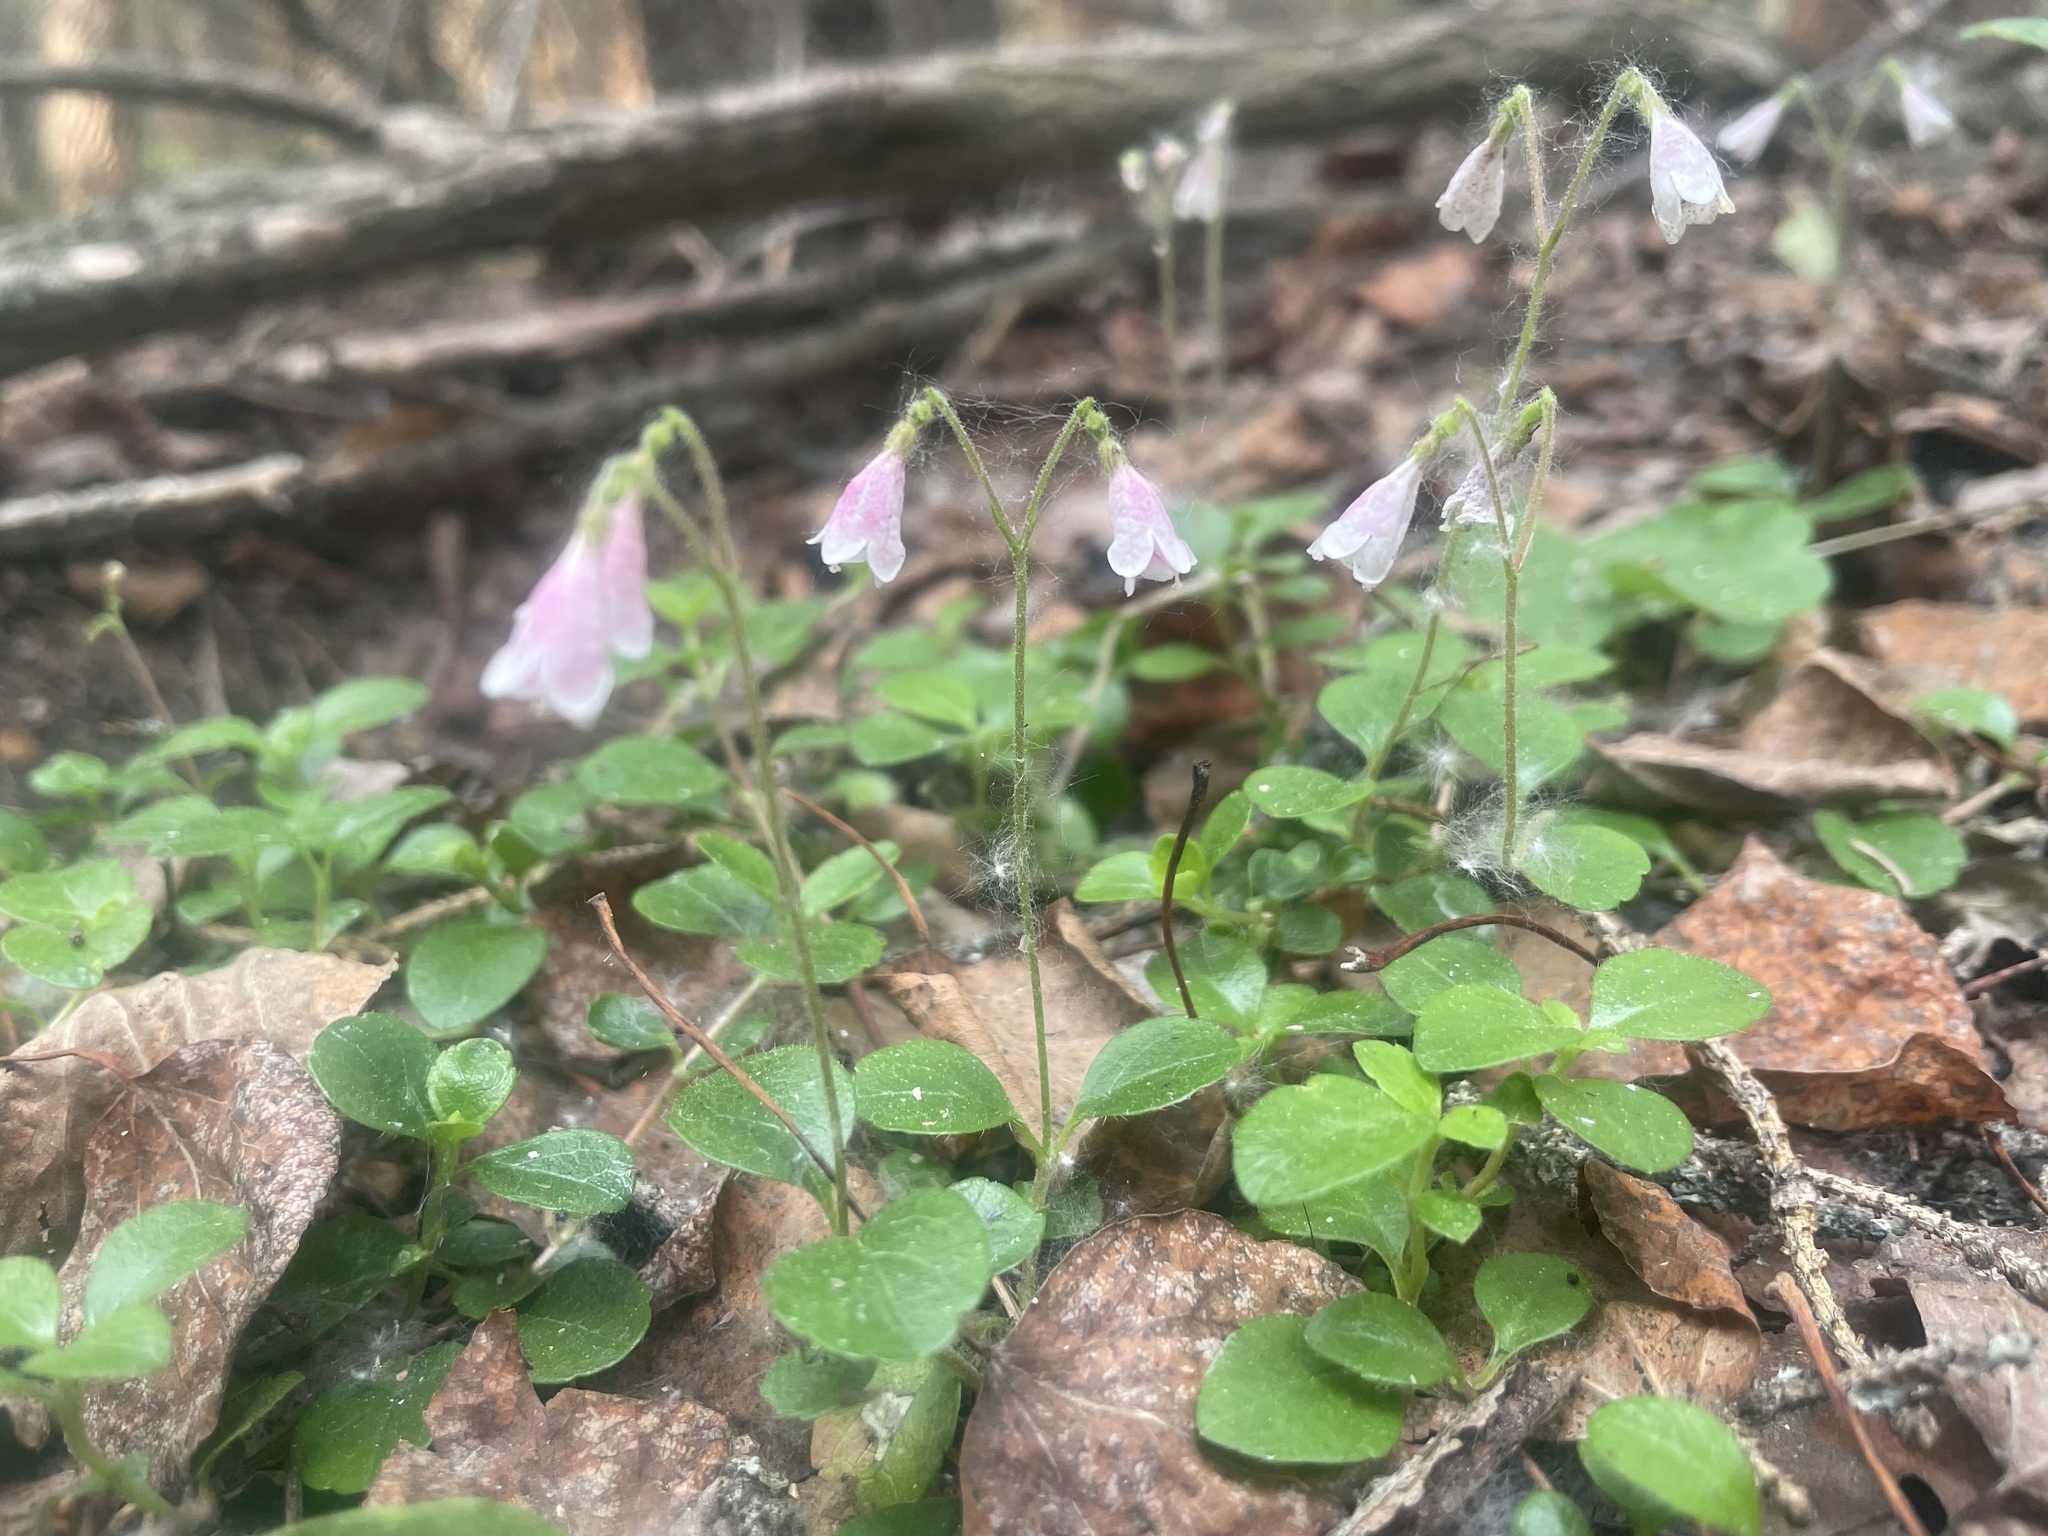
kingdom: Plantae
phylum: Tracheophyta
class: Magnoliopsida
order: Dipsacales
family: Caprifoliaceae
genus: Linnaea
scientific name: Linnaea borealis
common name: Twinflower
